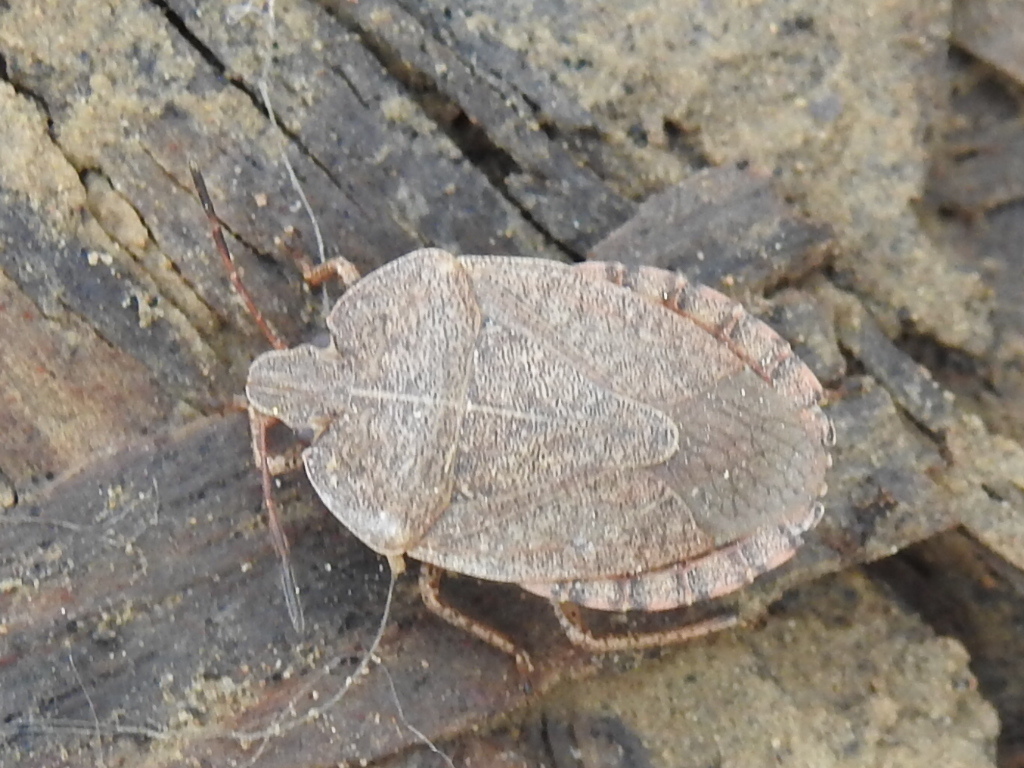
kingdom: Animalia
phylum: Arthropoda
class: Insecta
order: Hemiptera
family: Pentatomidae
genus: Menecles
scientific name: Menecles insertus
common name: Elf shoe stink bug
